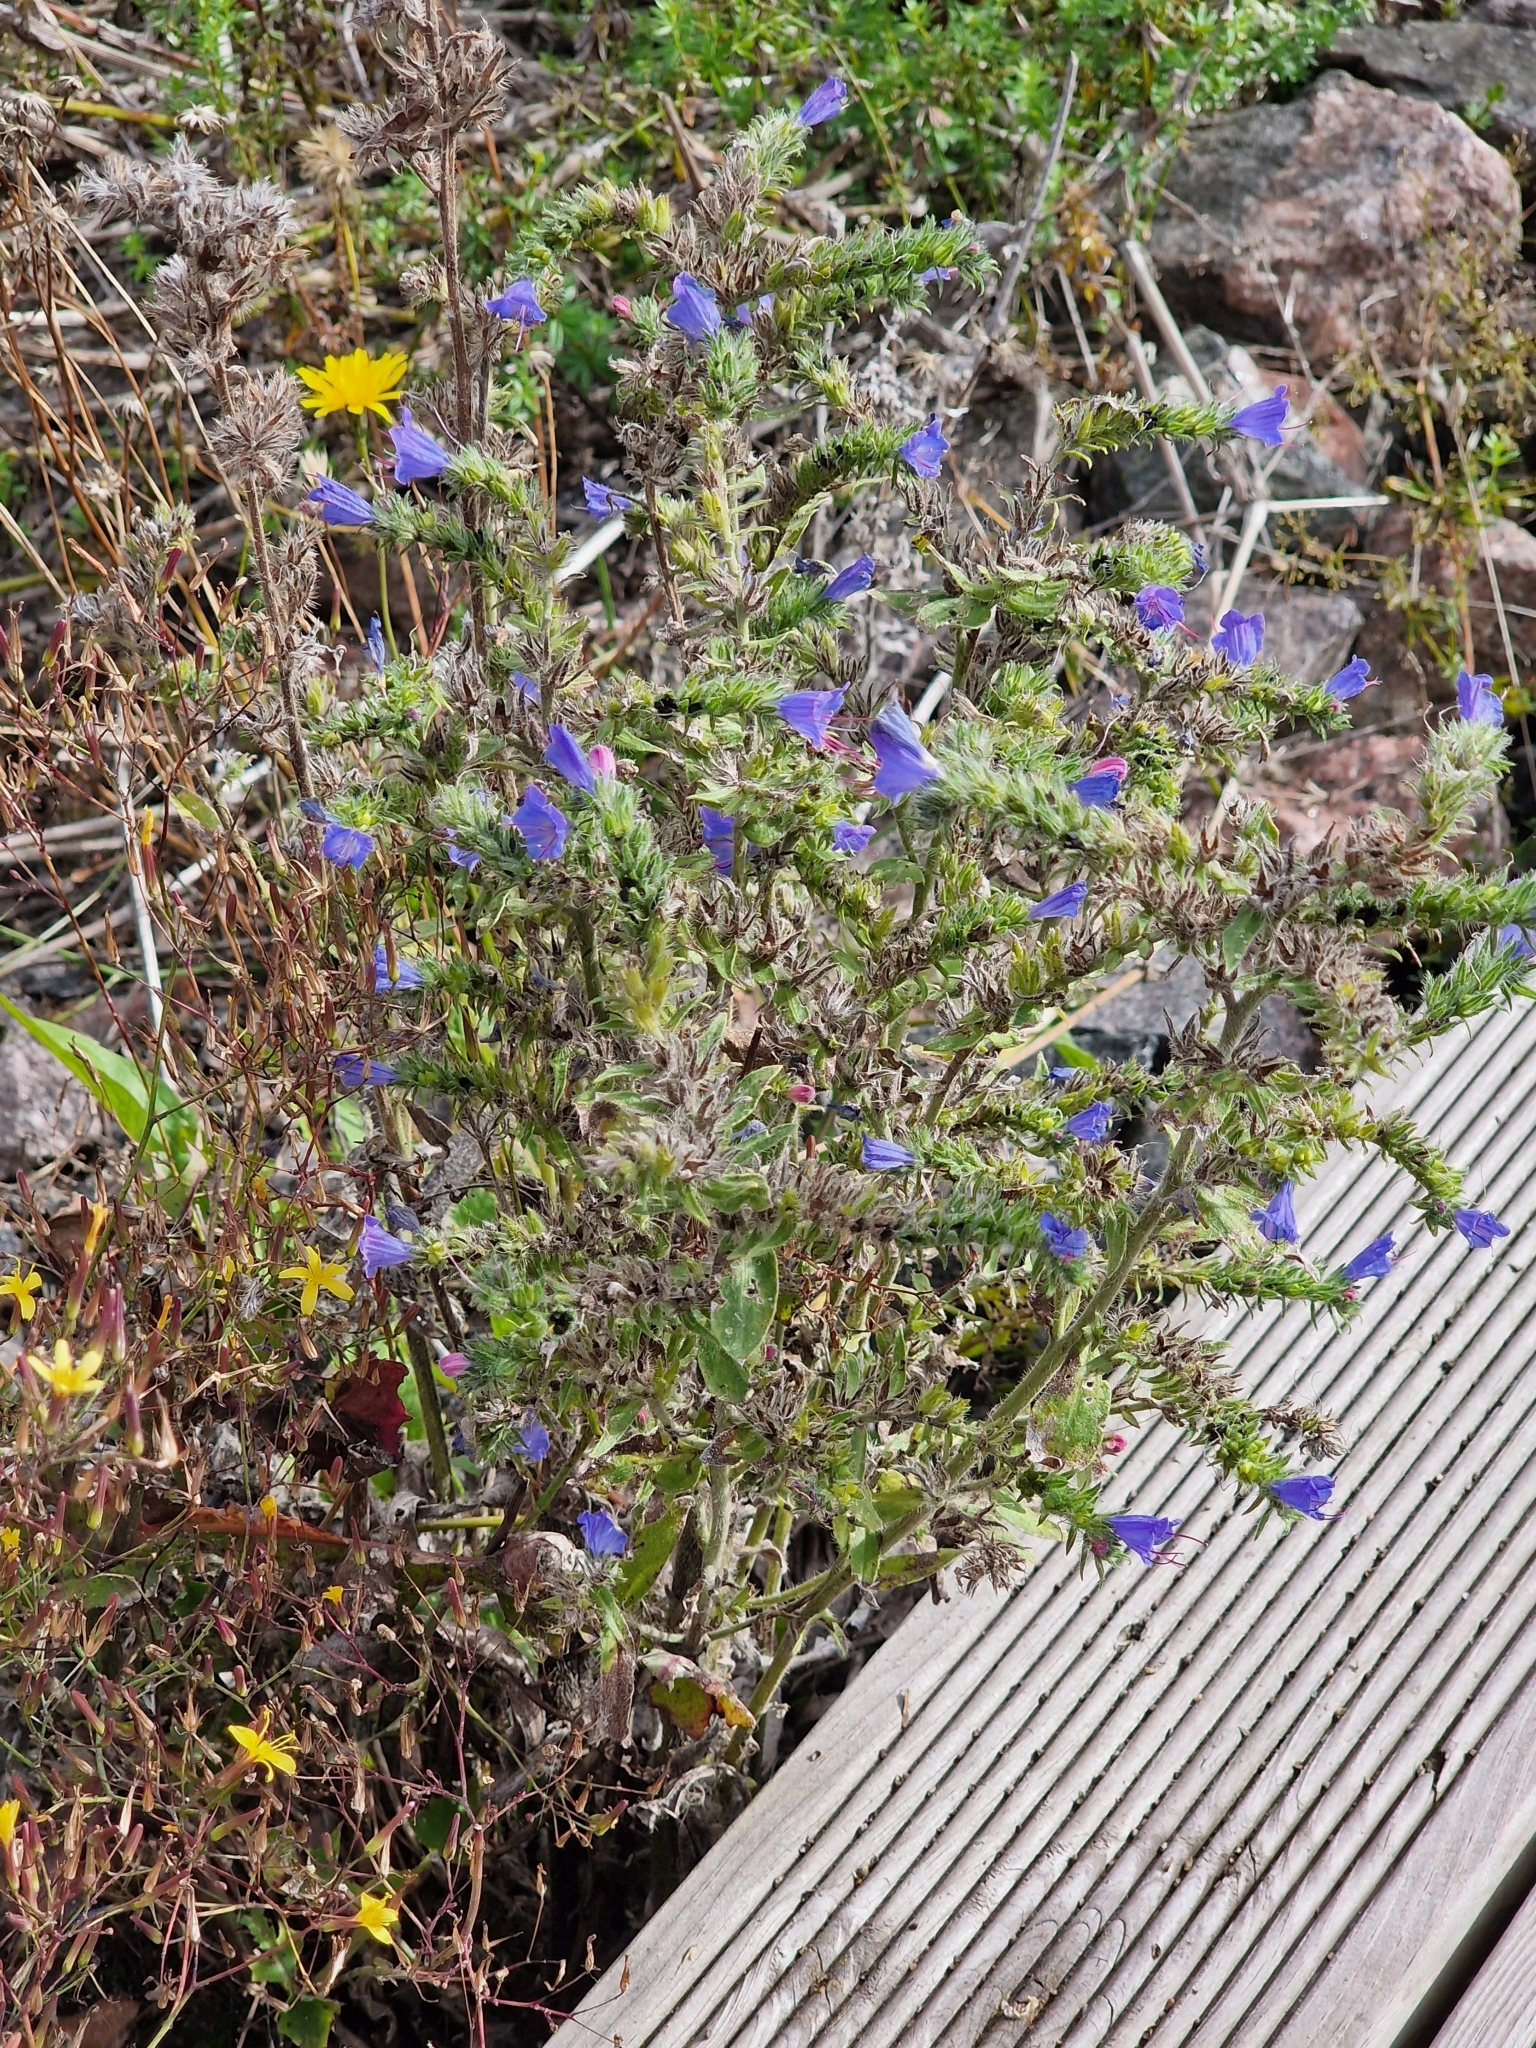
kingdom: Plantae
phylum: Tracheophyta
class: Magnoliopsida
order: Boraginales
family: Boraginaceae
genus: Echium
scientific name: Echium vulgare
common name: Common viper's bugloss
